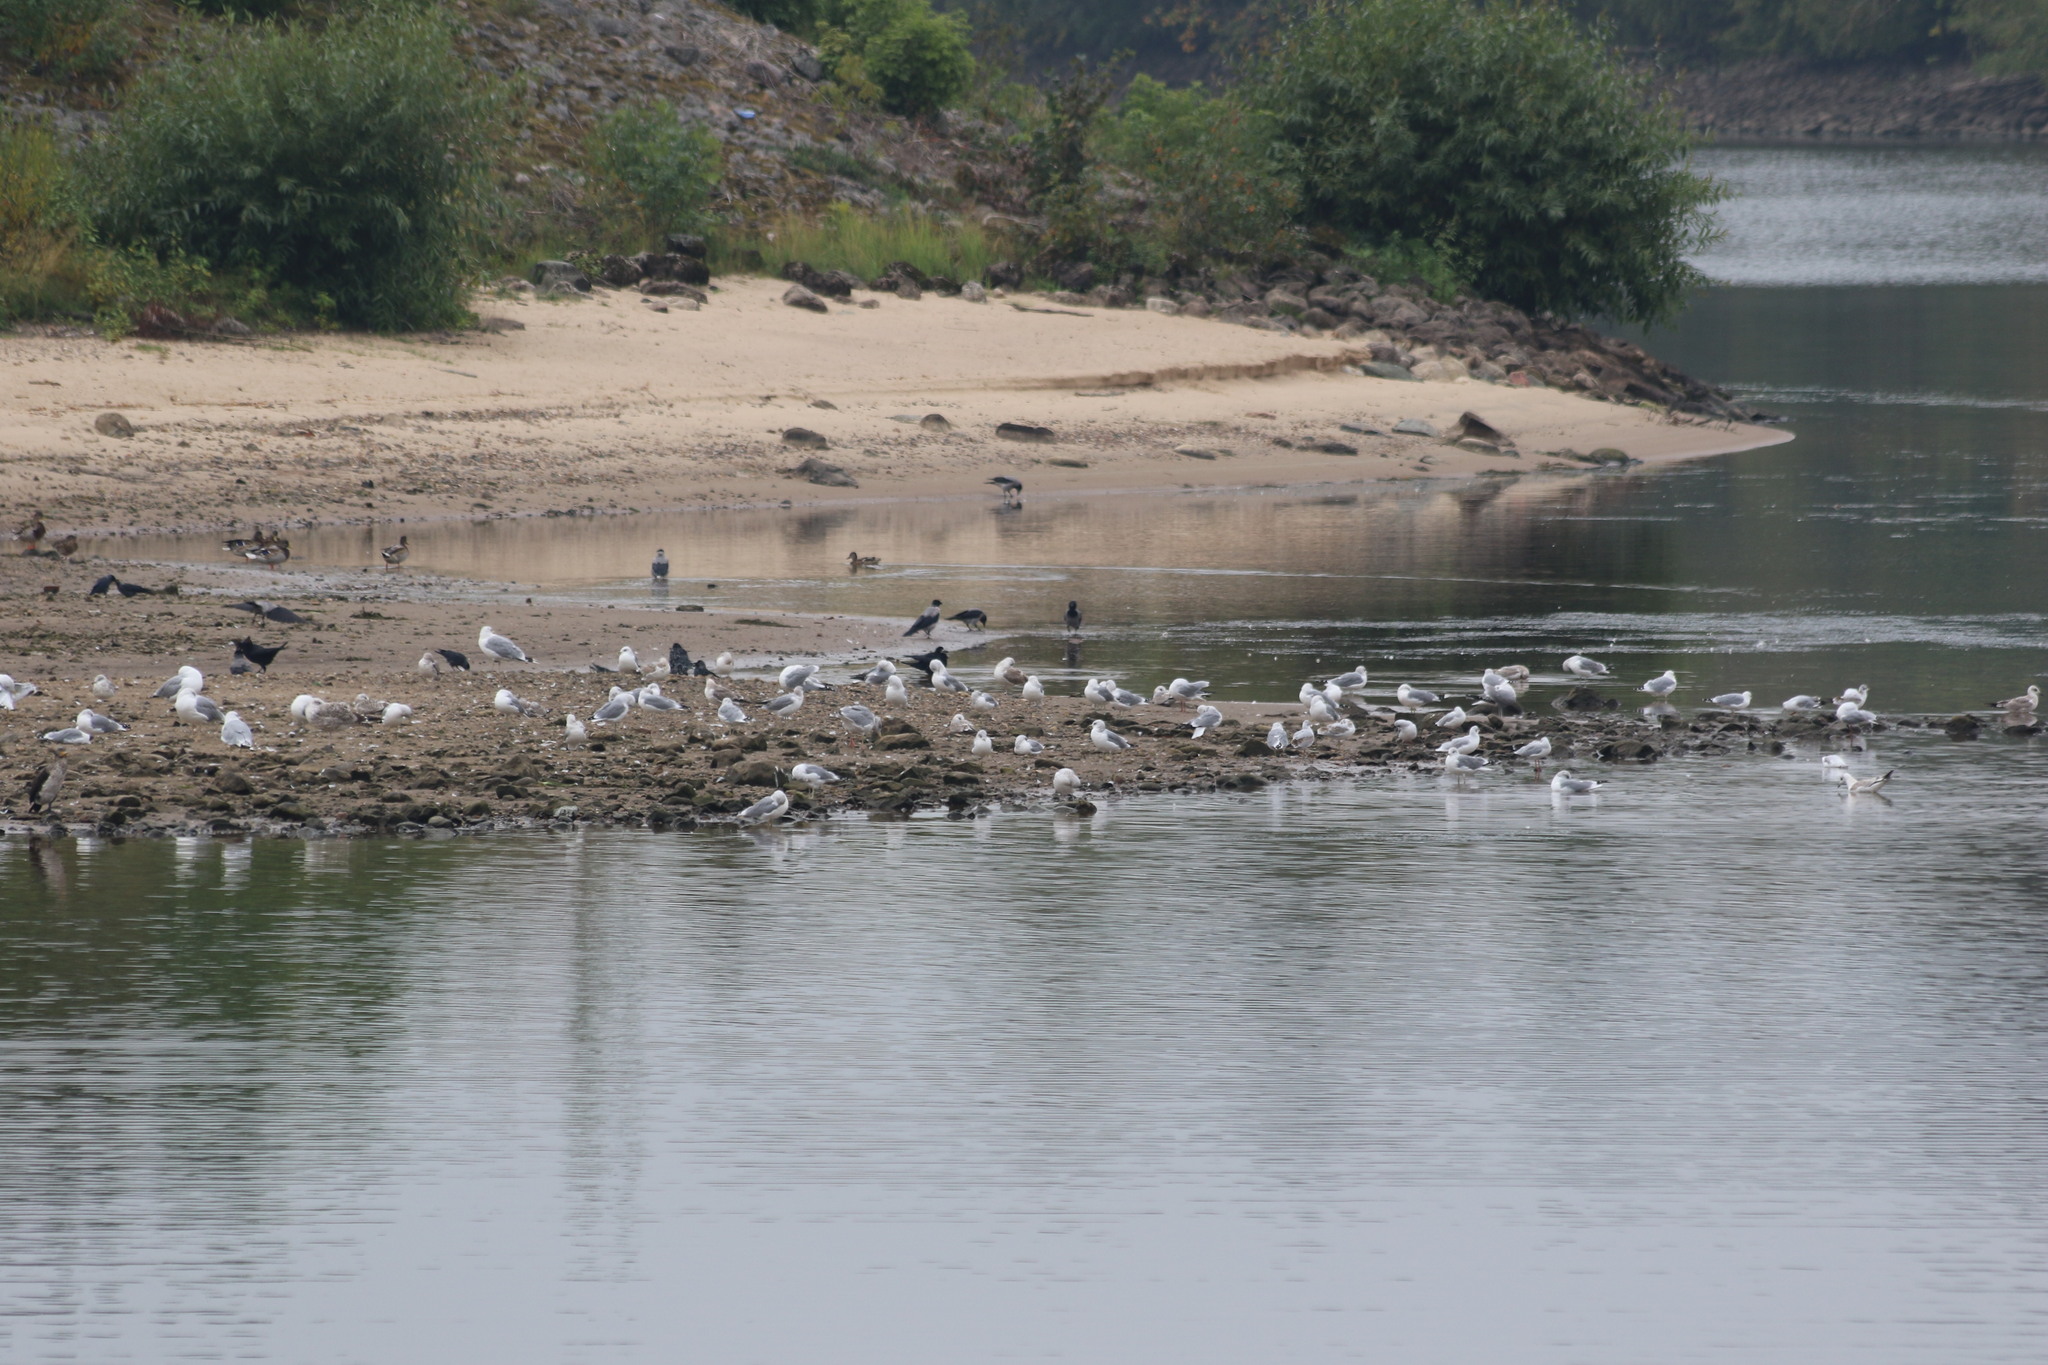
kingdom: Animalia
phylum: Chordata
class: Aves
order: Passeriformes
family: Corvidae
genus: Corvus
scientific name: Corvus cornix
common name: Hooded crow
